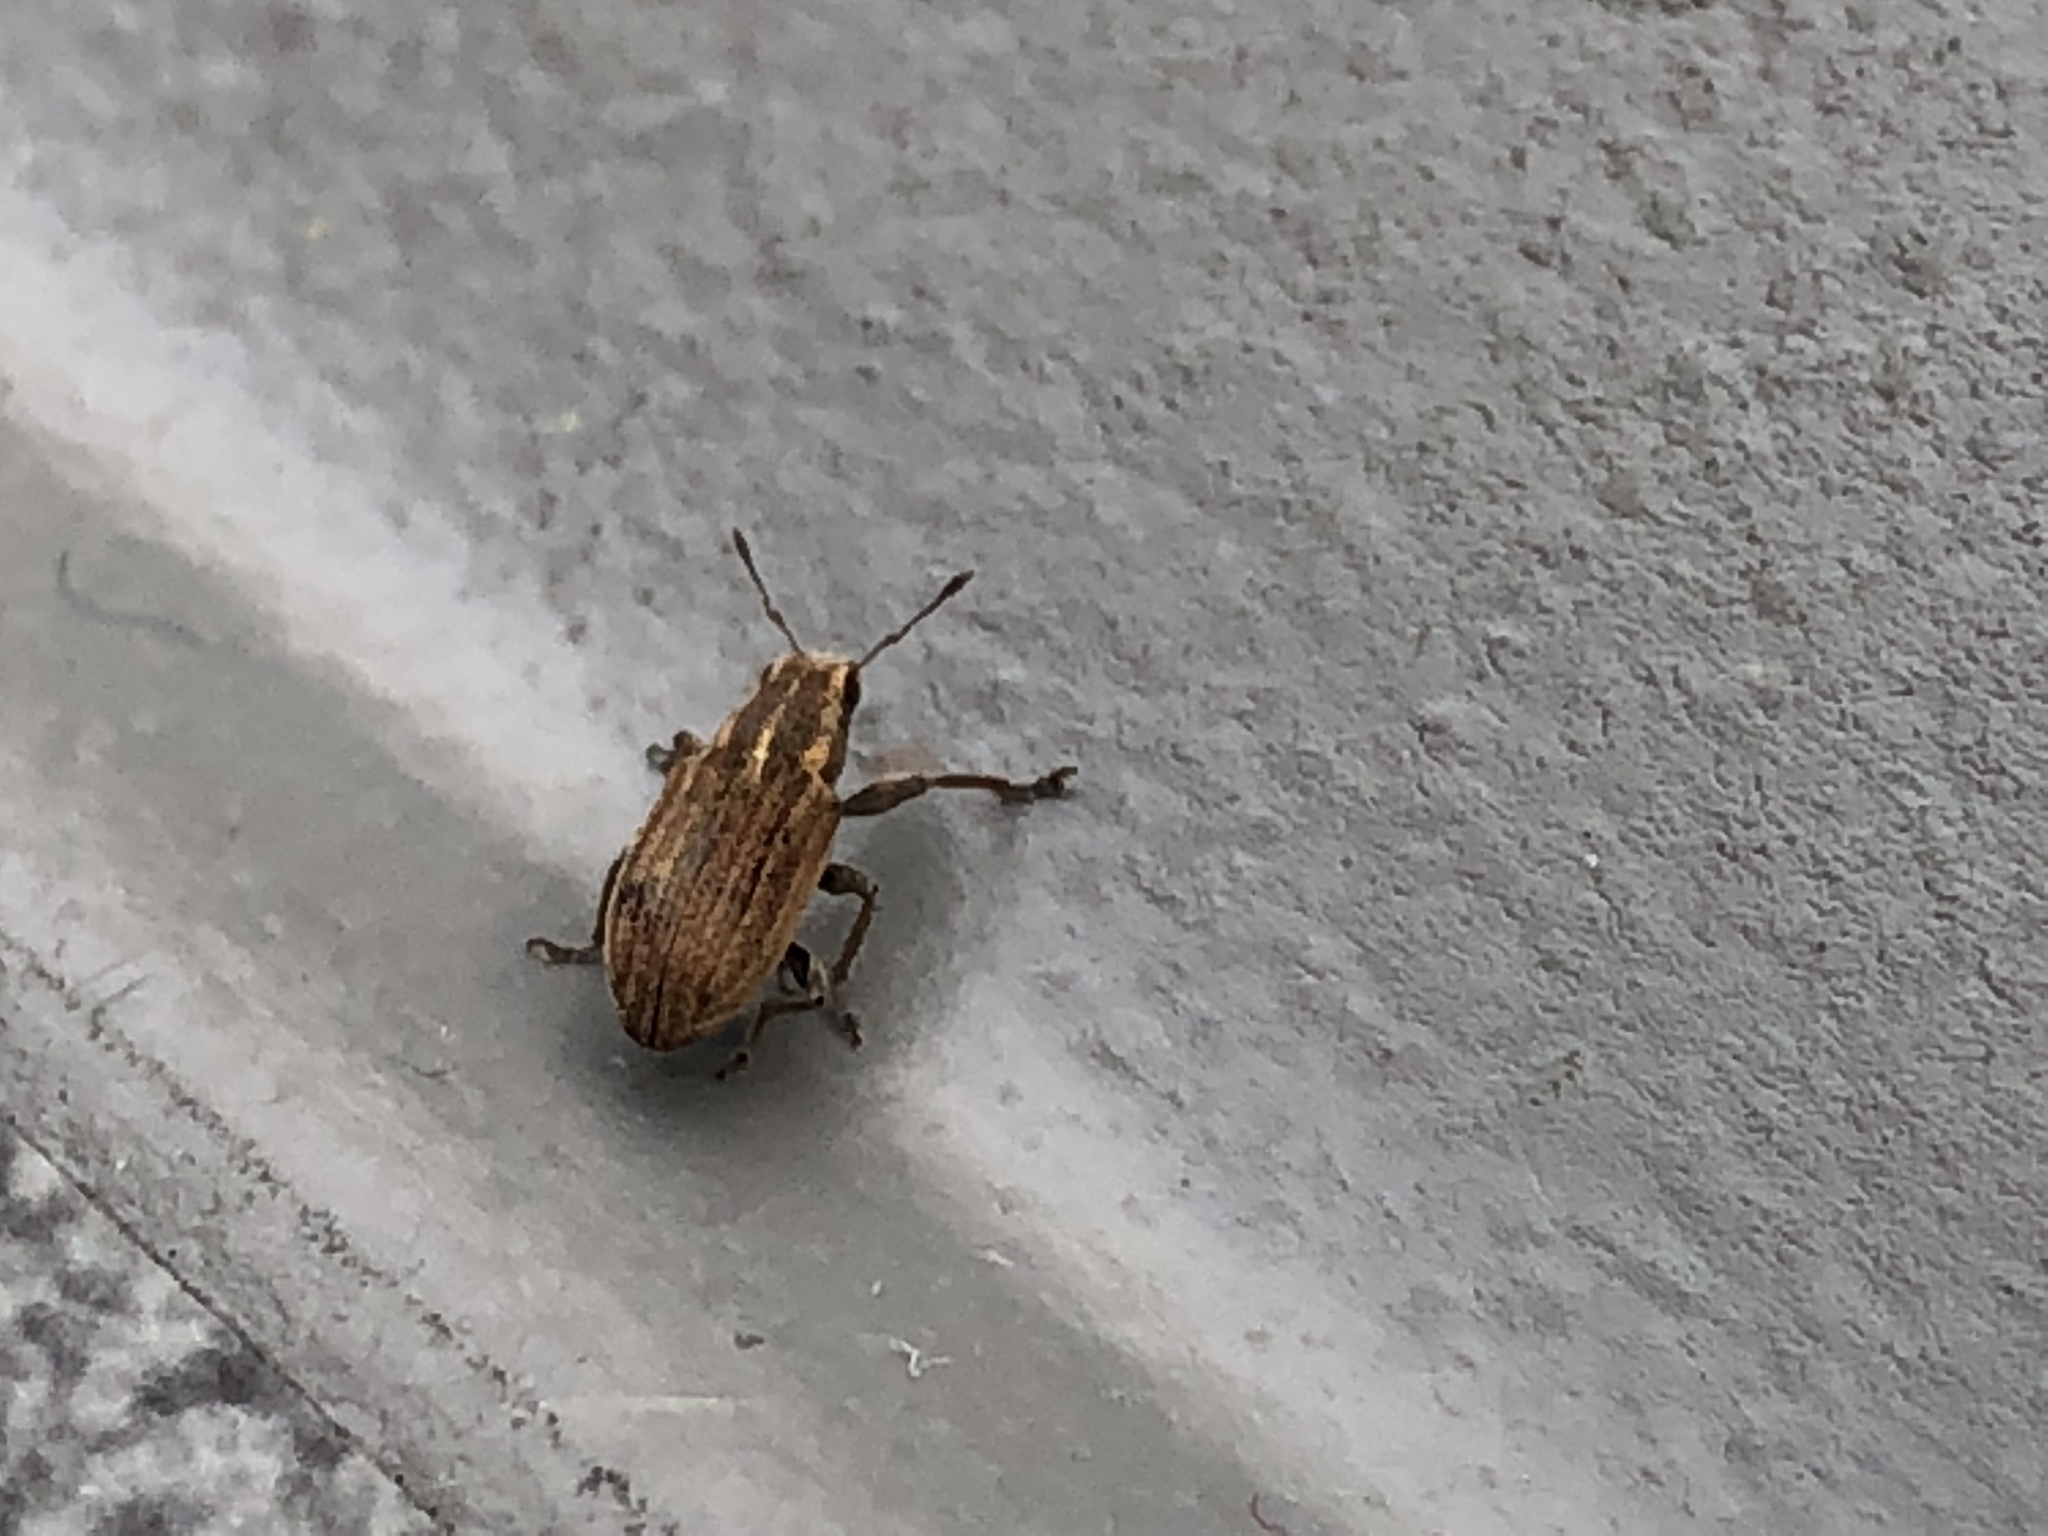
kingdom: Animalia
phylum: Arthropoda
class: Insecta
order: Coleoptera
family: Curculionidae
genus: Sitona
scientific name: Sitona lineatus
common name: Weevil
